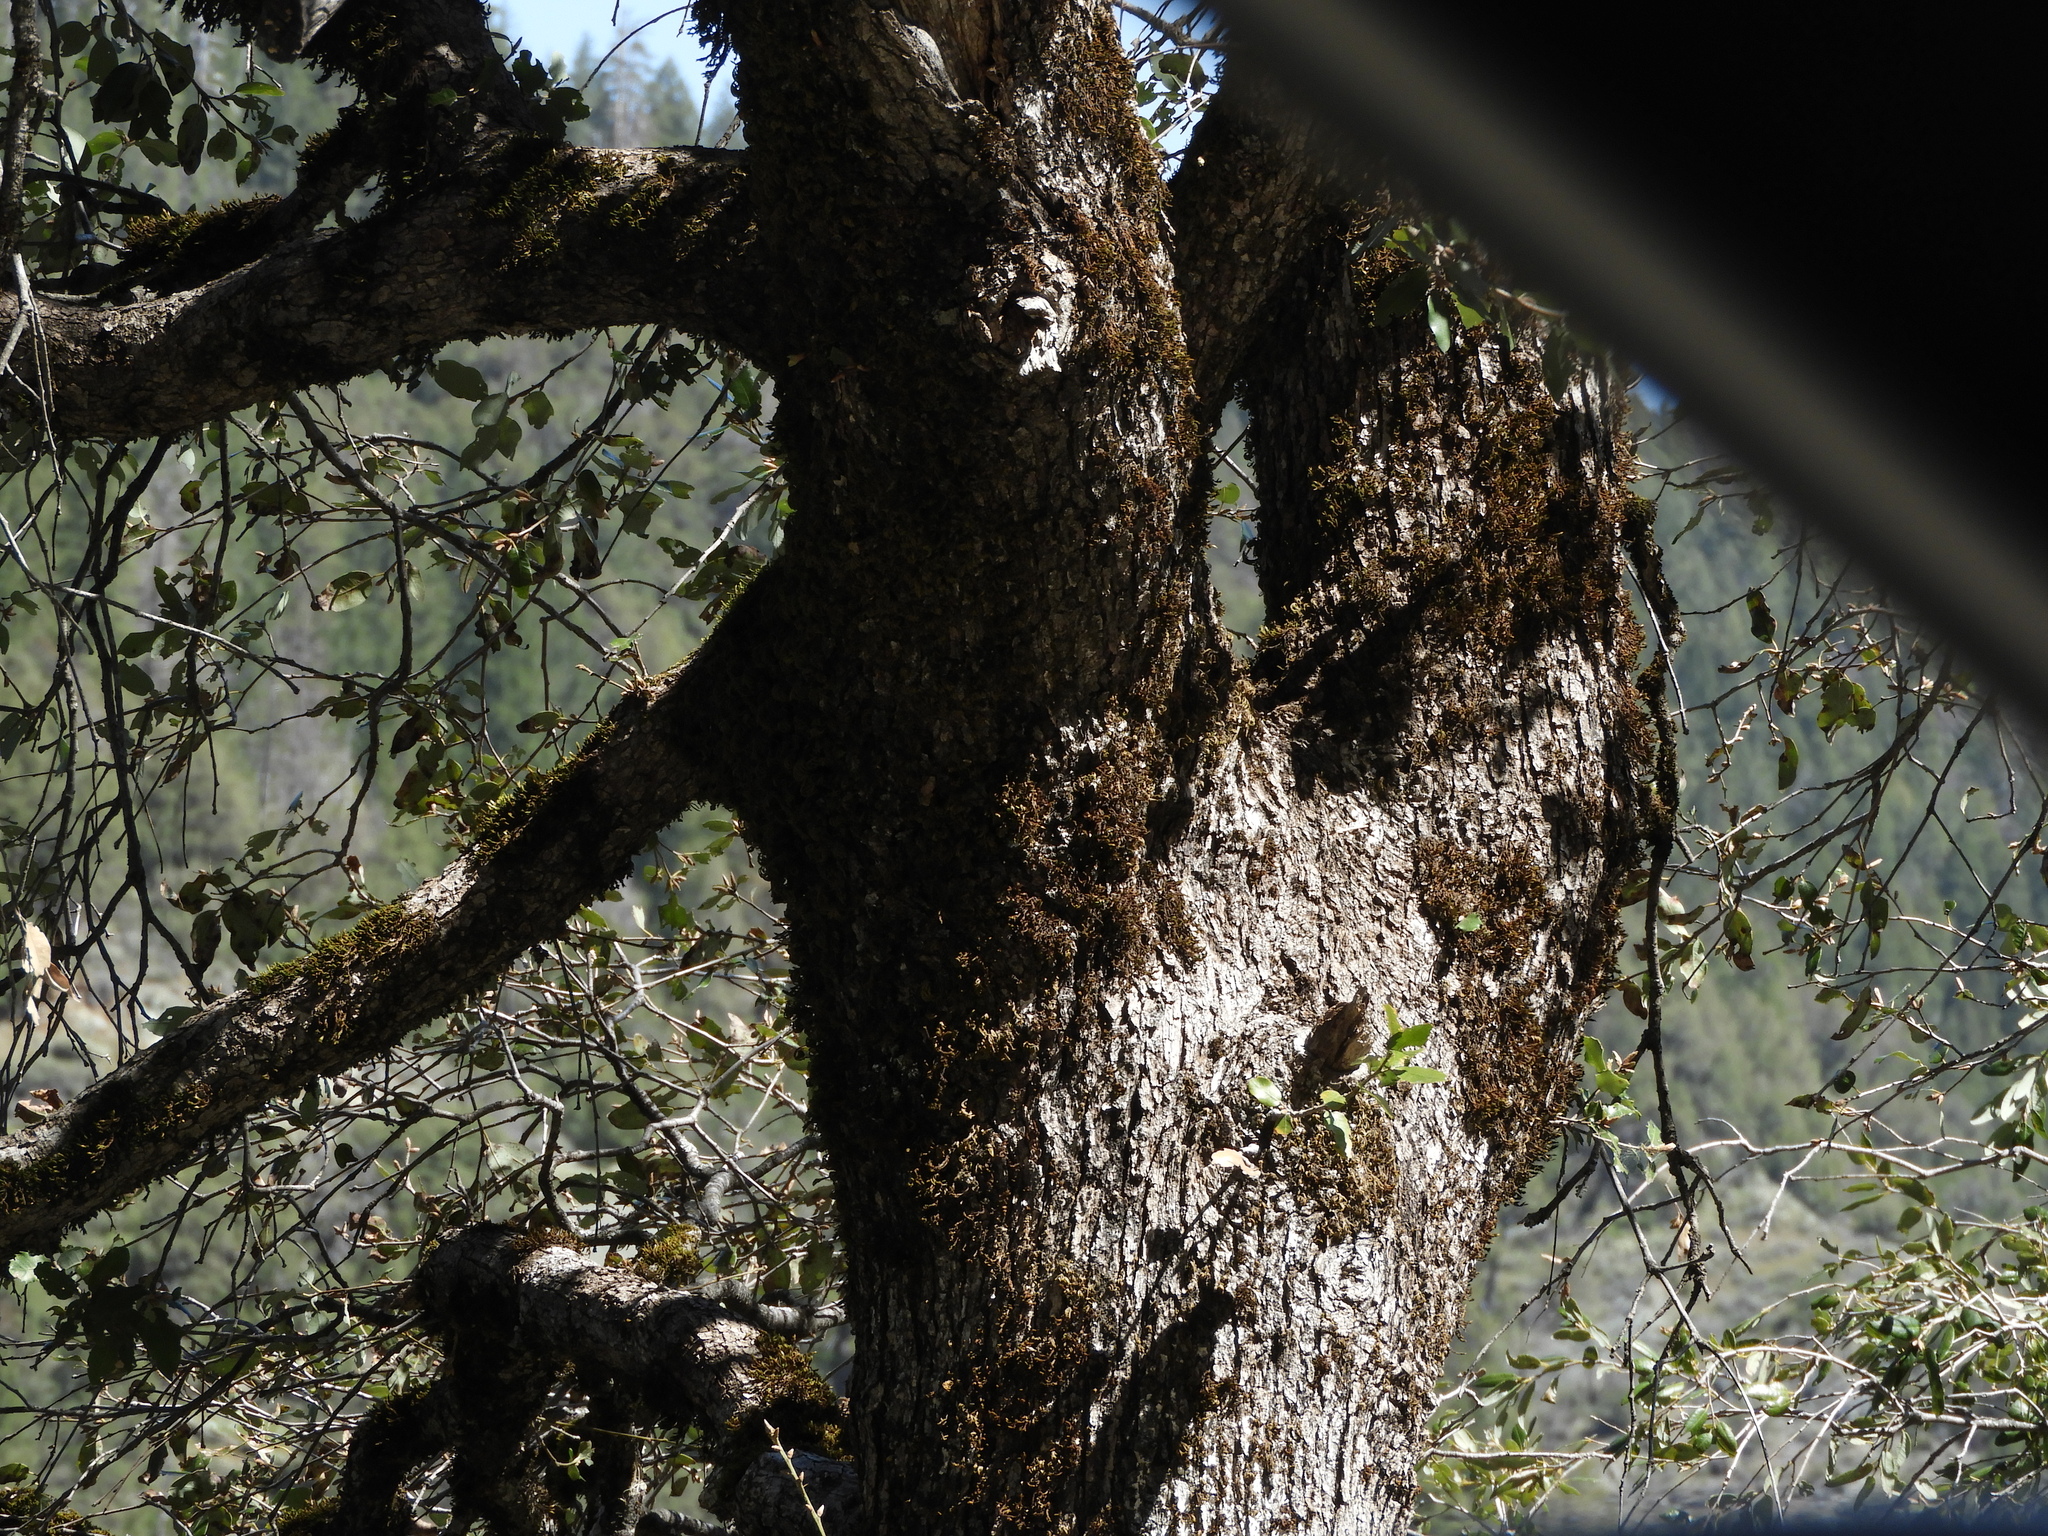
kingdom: Plantae
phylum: Tracheophyta
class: Magnoliopsida
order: Fagales
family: Fagaceae
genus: Quercus
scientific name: Quercus chrysolepis
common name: Canyon live oak
